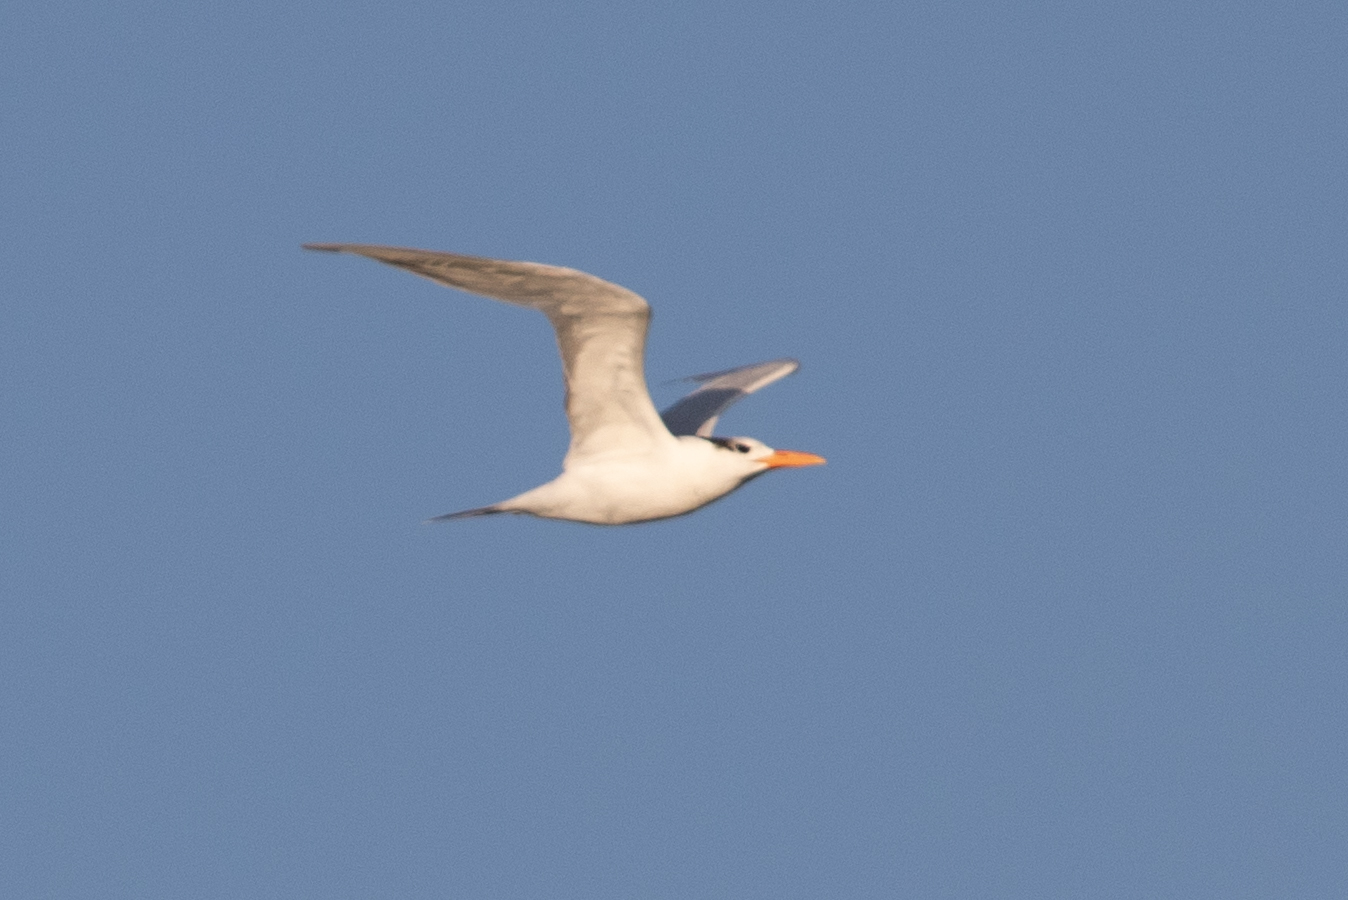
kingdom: Animalia
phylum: Chordata
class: Aves
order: Charadriiformes
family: Laridae
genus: Thalasseus
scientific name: Thalasseus maximus
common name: Royal tern
